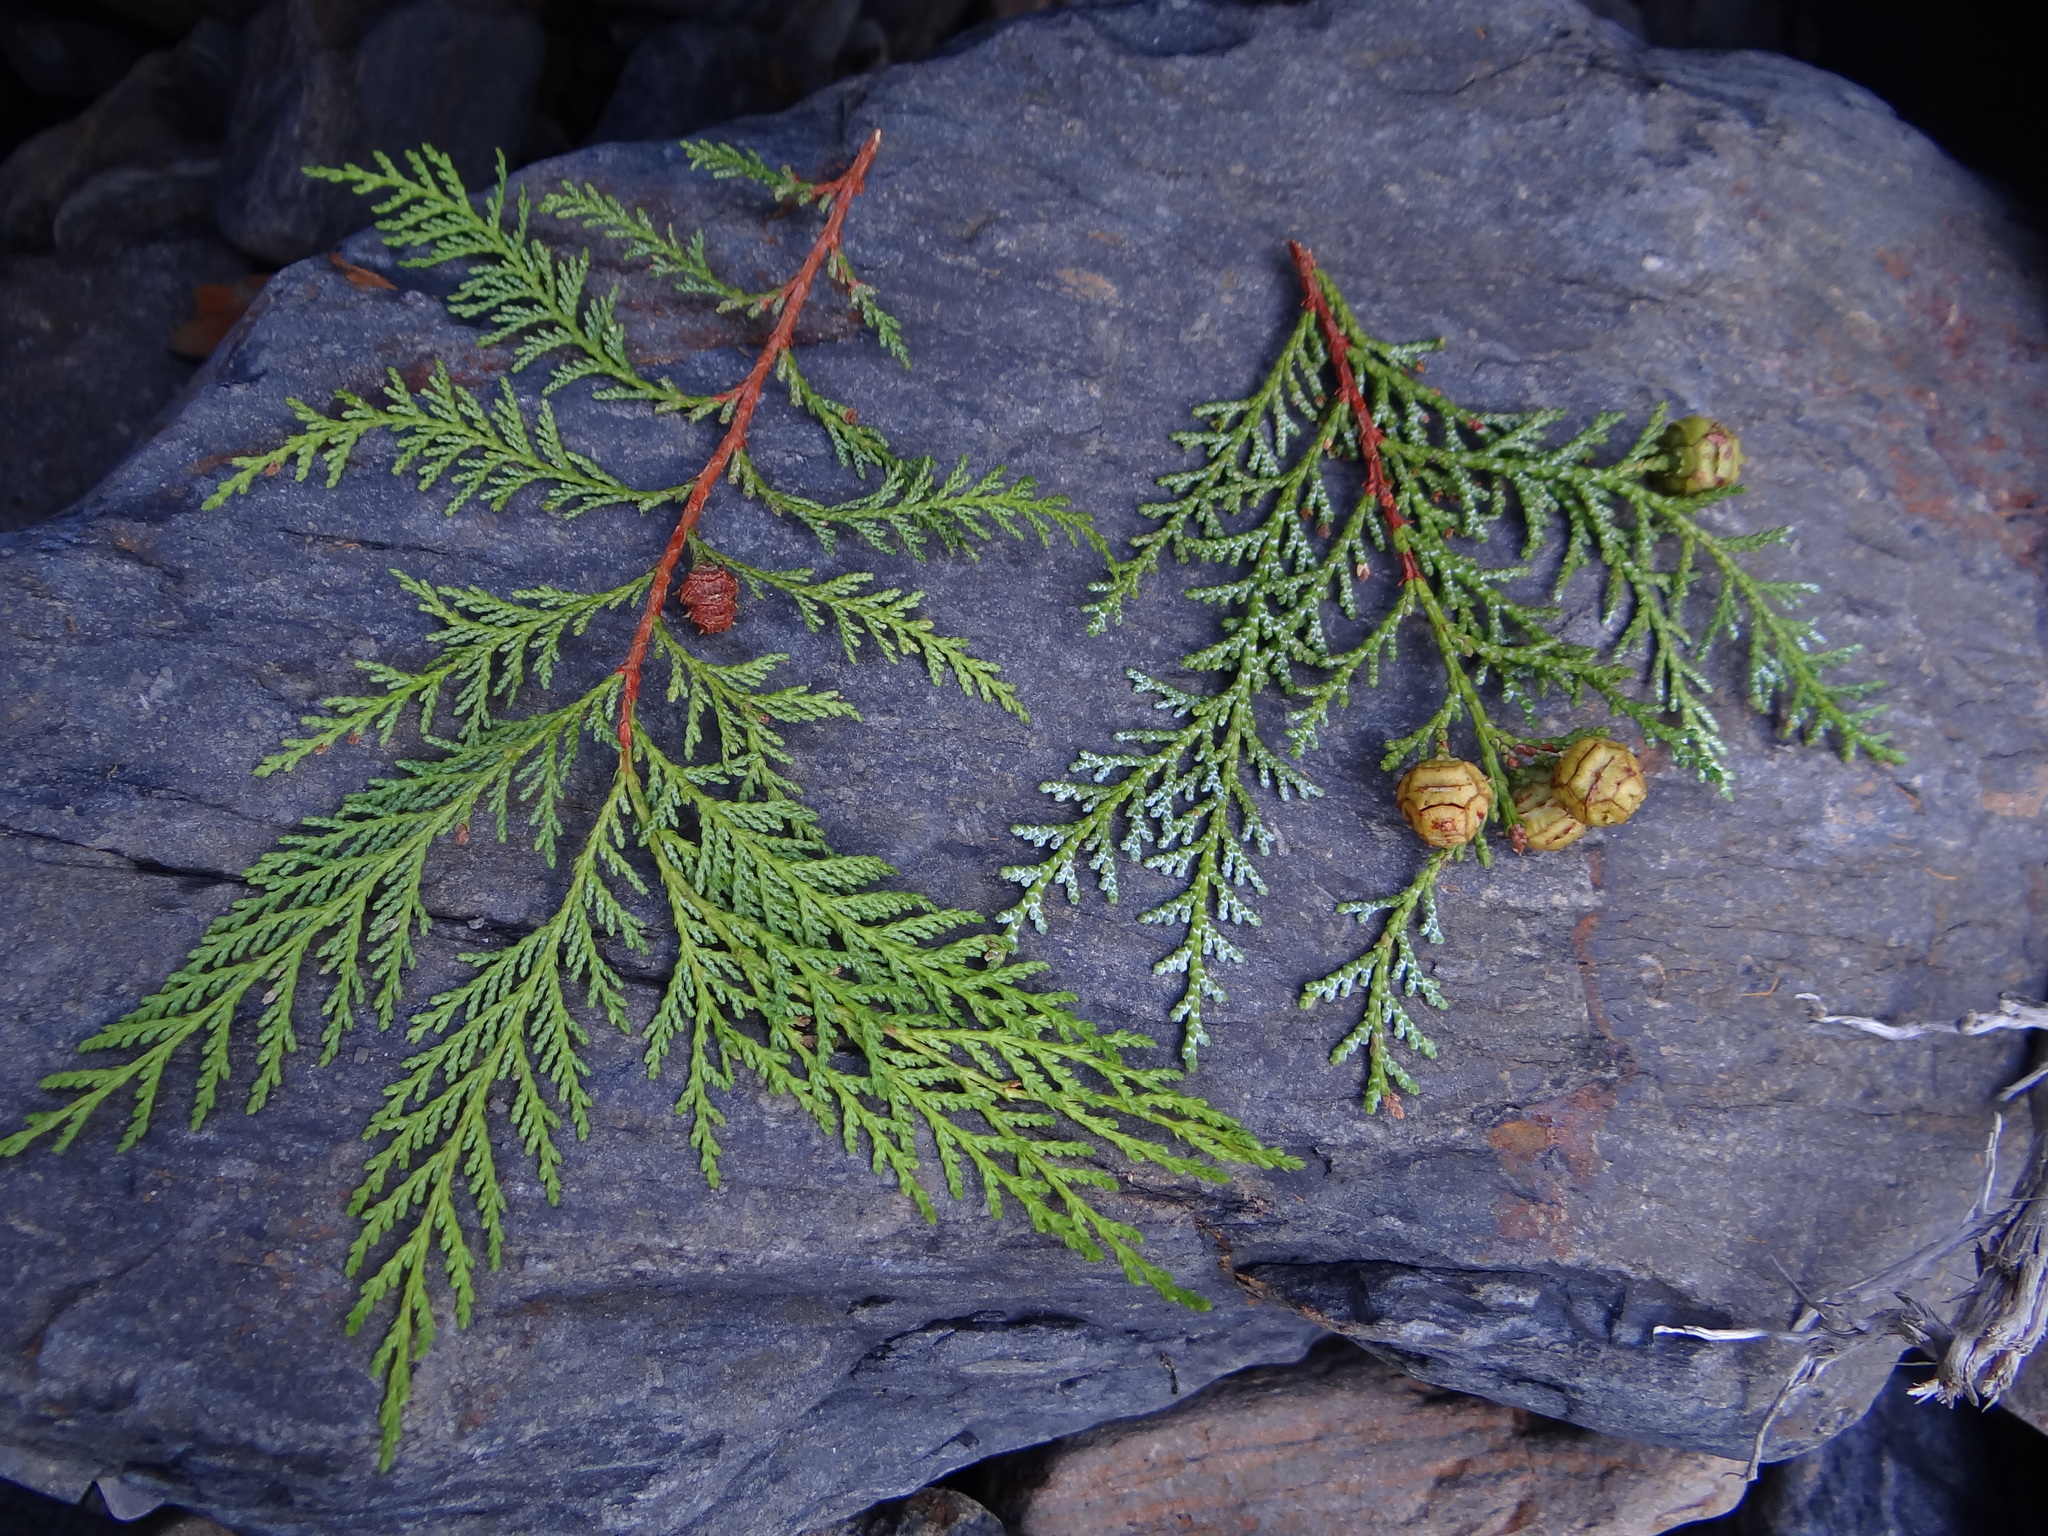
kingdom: Plantae
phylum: Tracheophyta
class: Pinopsida
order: Pinales
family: Cupressaceae
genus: Chamaecyparis
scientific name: Chamaecyparis formosensis
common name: Formosan cypress
